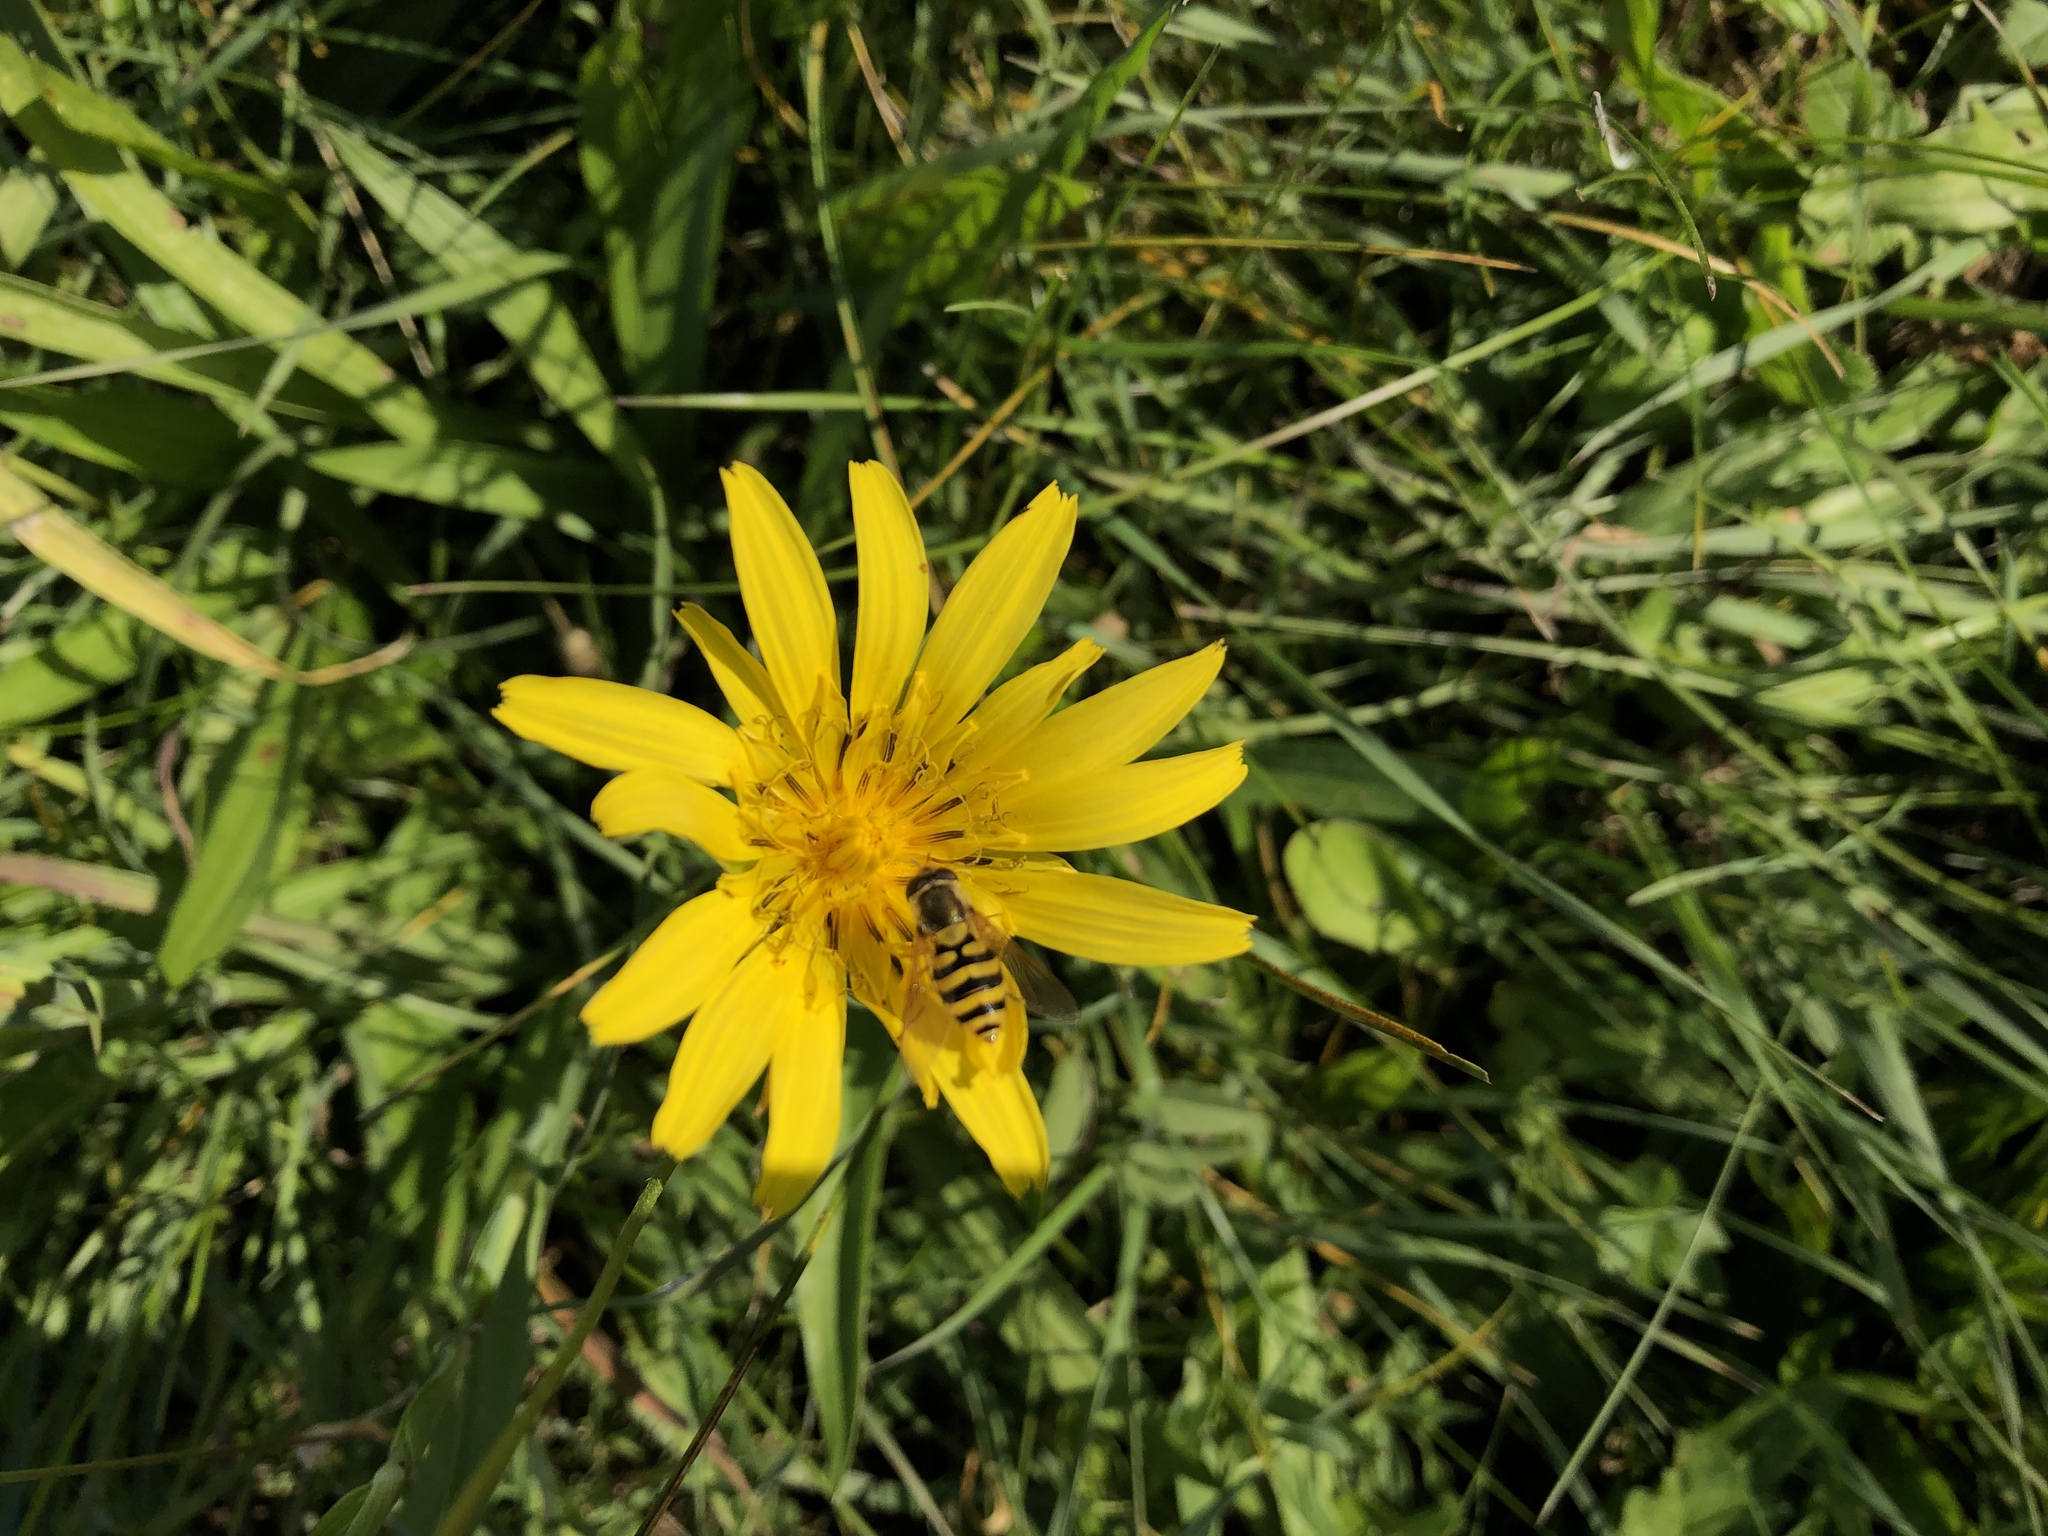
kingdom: Plantae
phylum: Tracheophyta
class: Magnoliopsida
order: Asterales
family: Asteraceae
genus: Tragopogon
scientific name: Tragopogon orientalis
